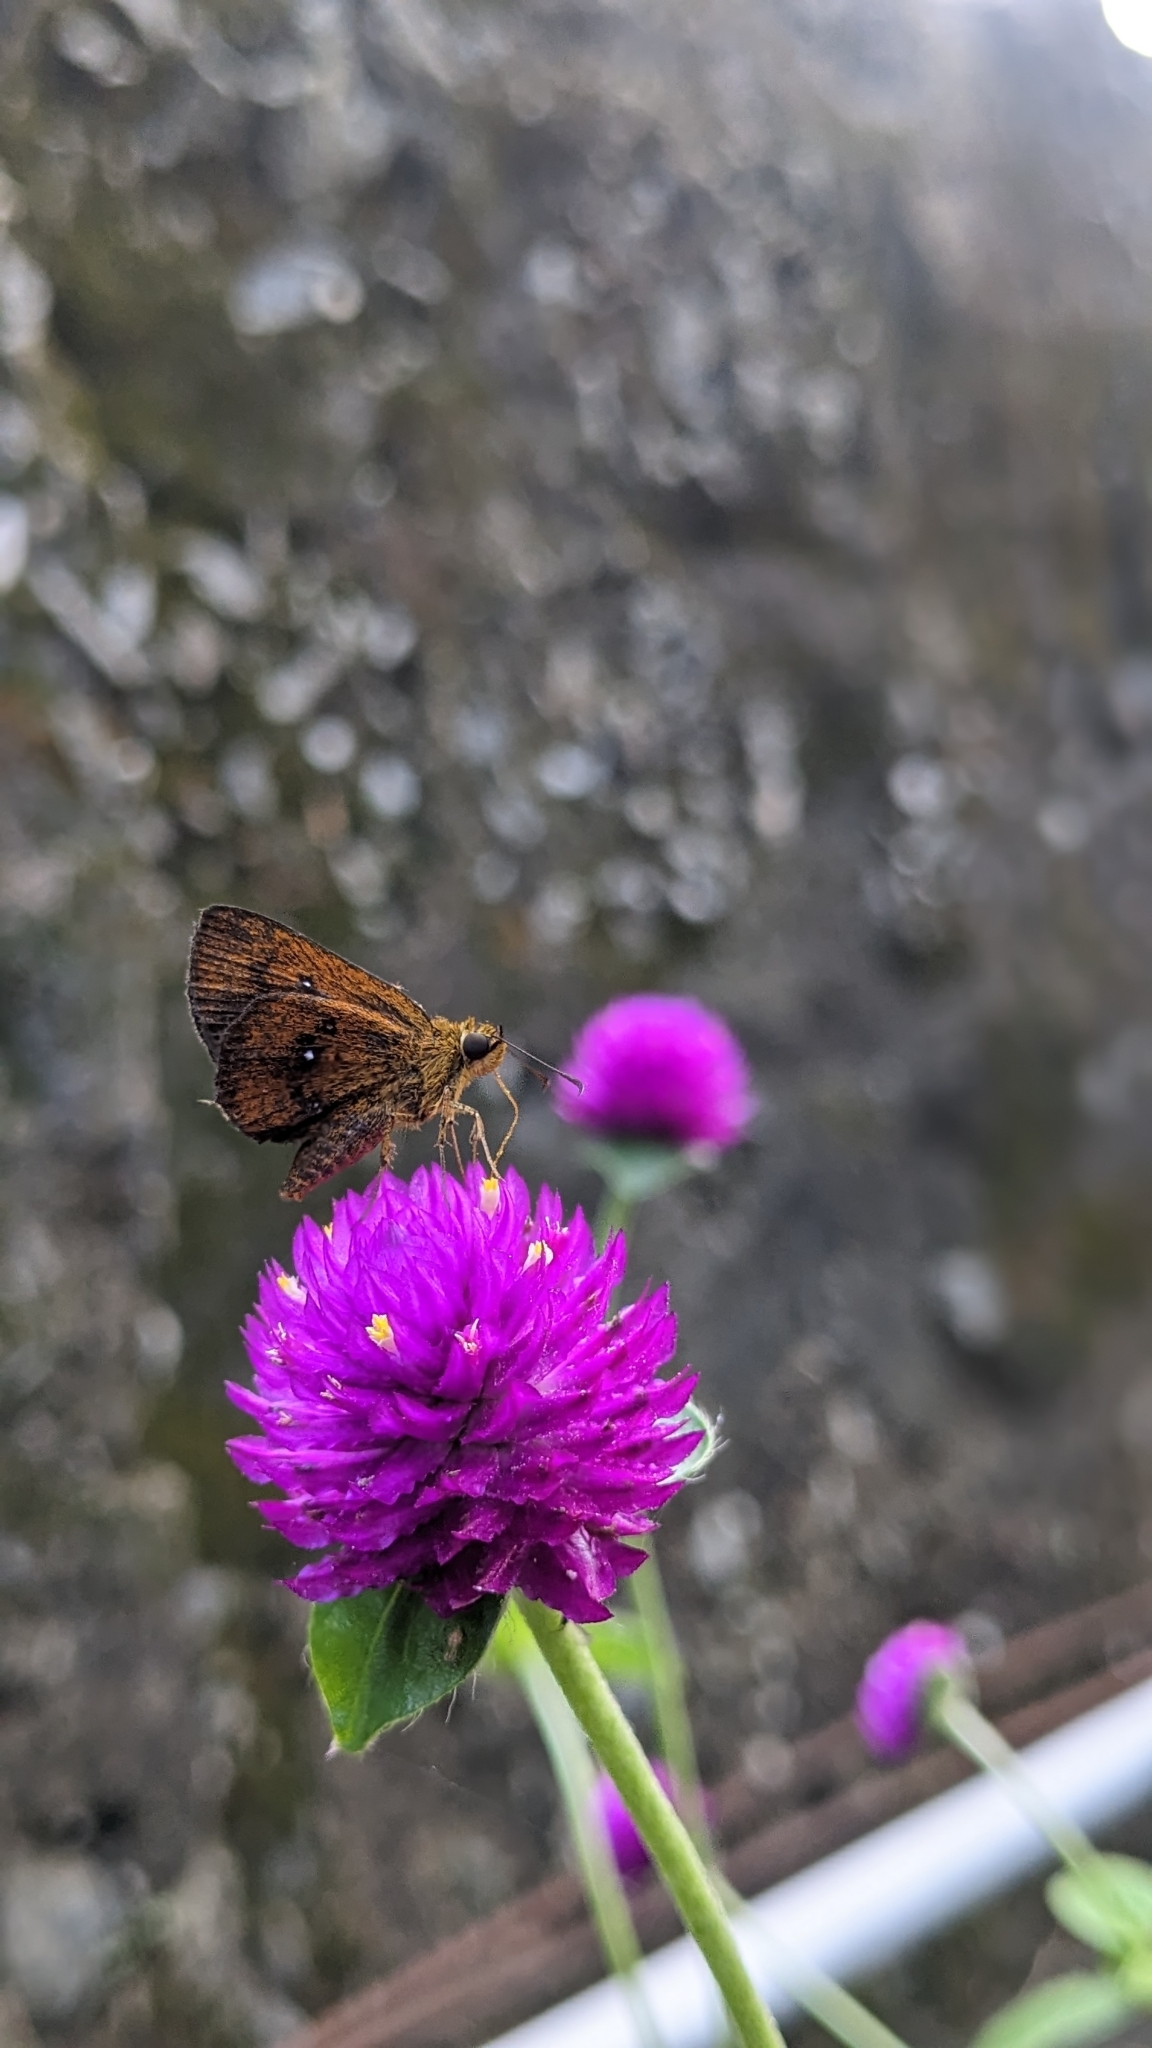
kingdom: Animalia
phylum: Arthropoda
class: Insecta
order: Lepidoptera
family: Hesperiidae
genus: Iambrix
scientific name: Iambrix salsala
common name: Chestnut bob
